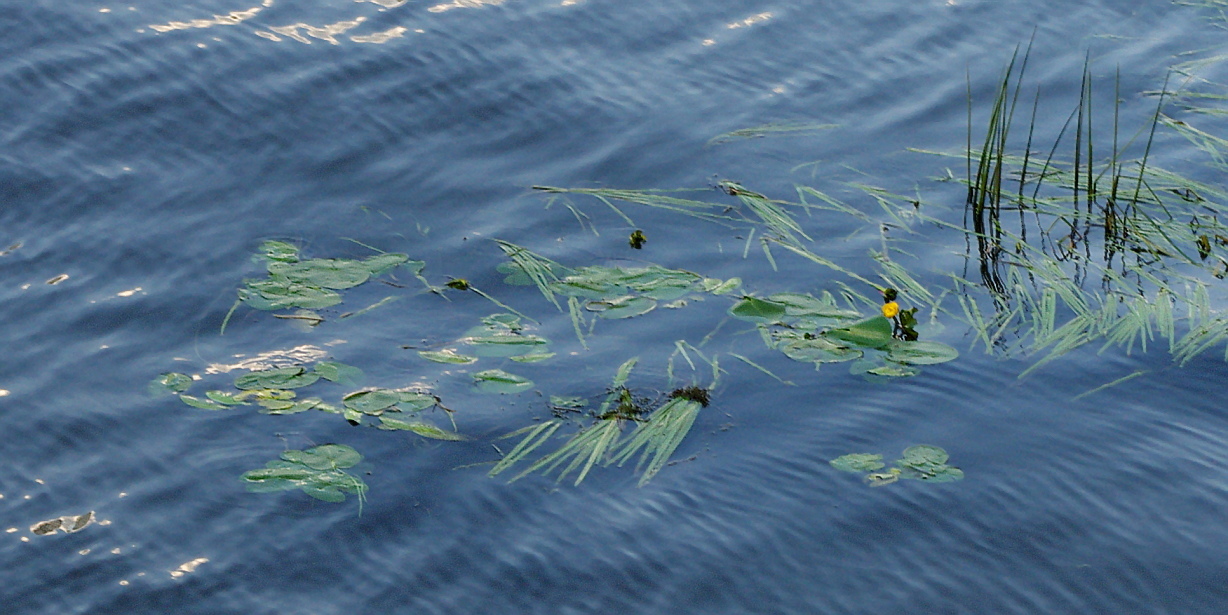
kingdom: Plantae
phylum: Tracheophyta
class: Magnoliopsida
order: Nymphaeales
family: Nymphaeaceae
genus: Nuphar
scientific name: Nuphar lutea
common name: Yellow water-lily
